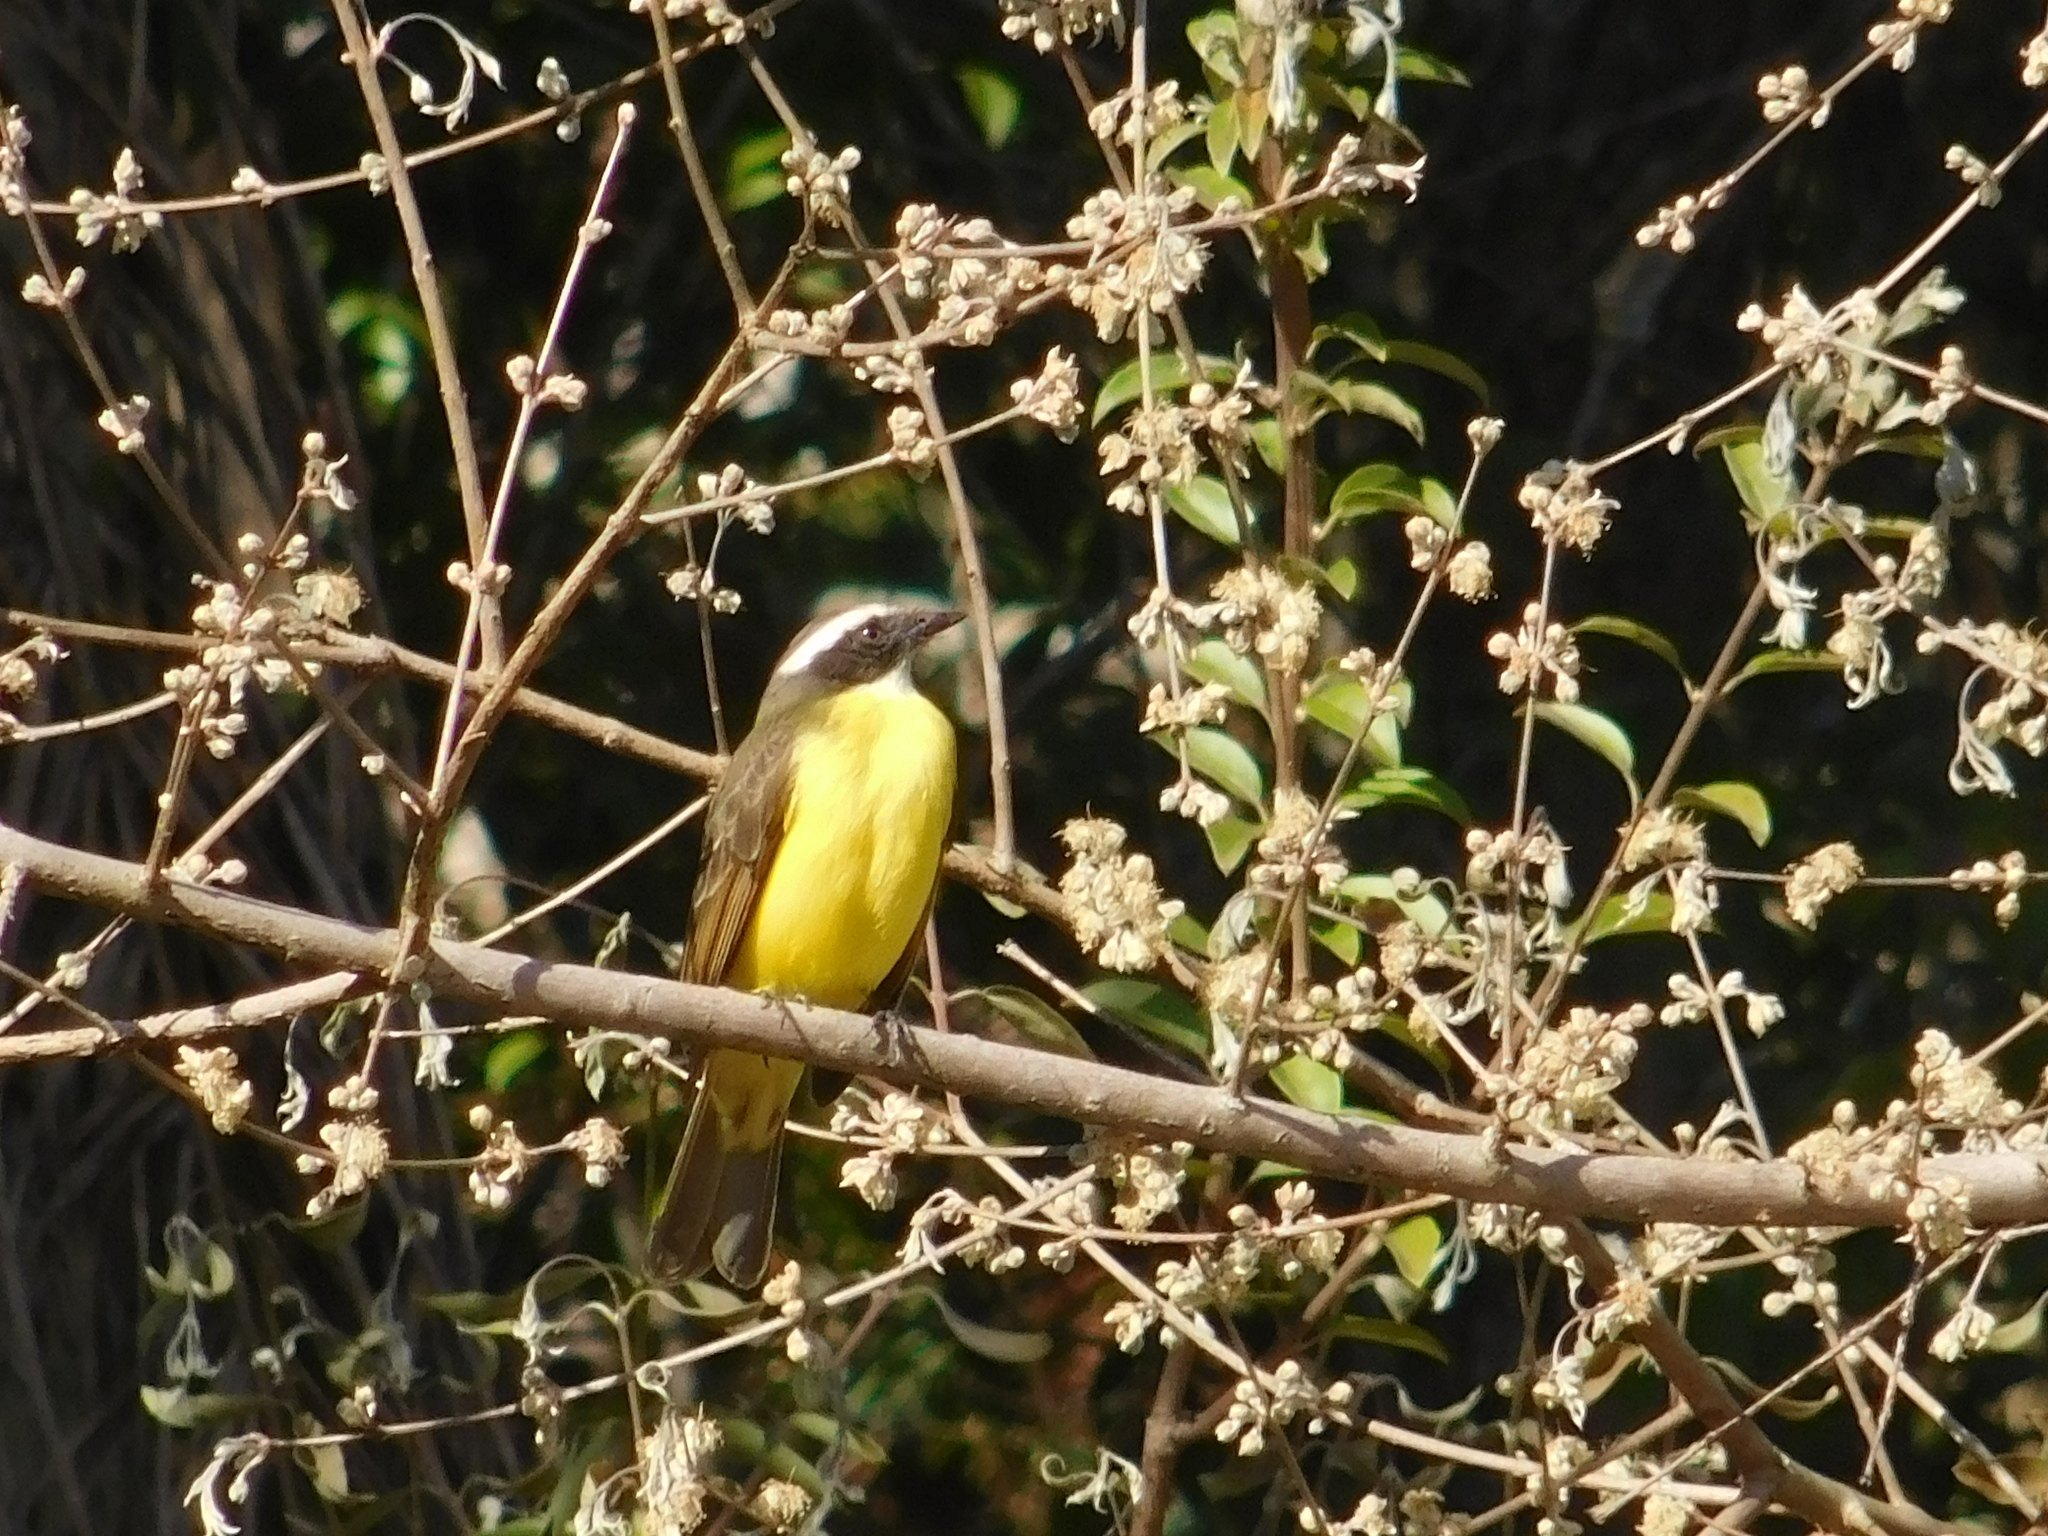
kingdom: Animalia
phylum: Chordata
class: Aves
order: Passeriformes
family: Tyrannidae
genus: Myiozetetes
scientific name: Myiozetetes similis
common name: Social flycatcher
